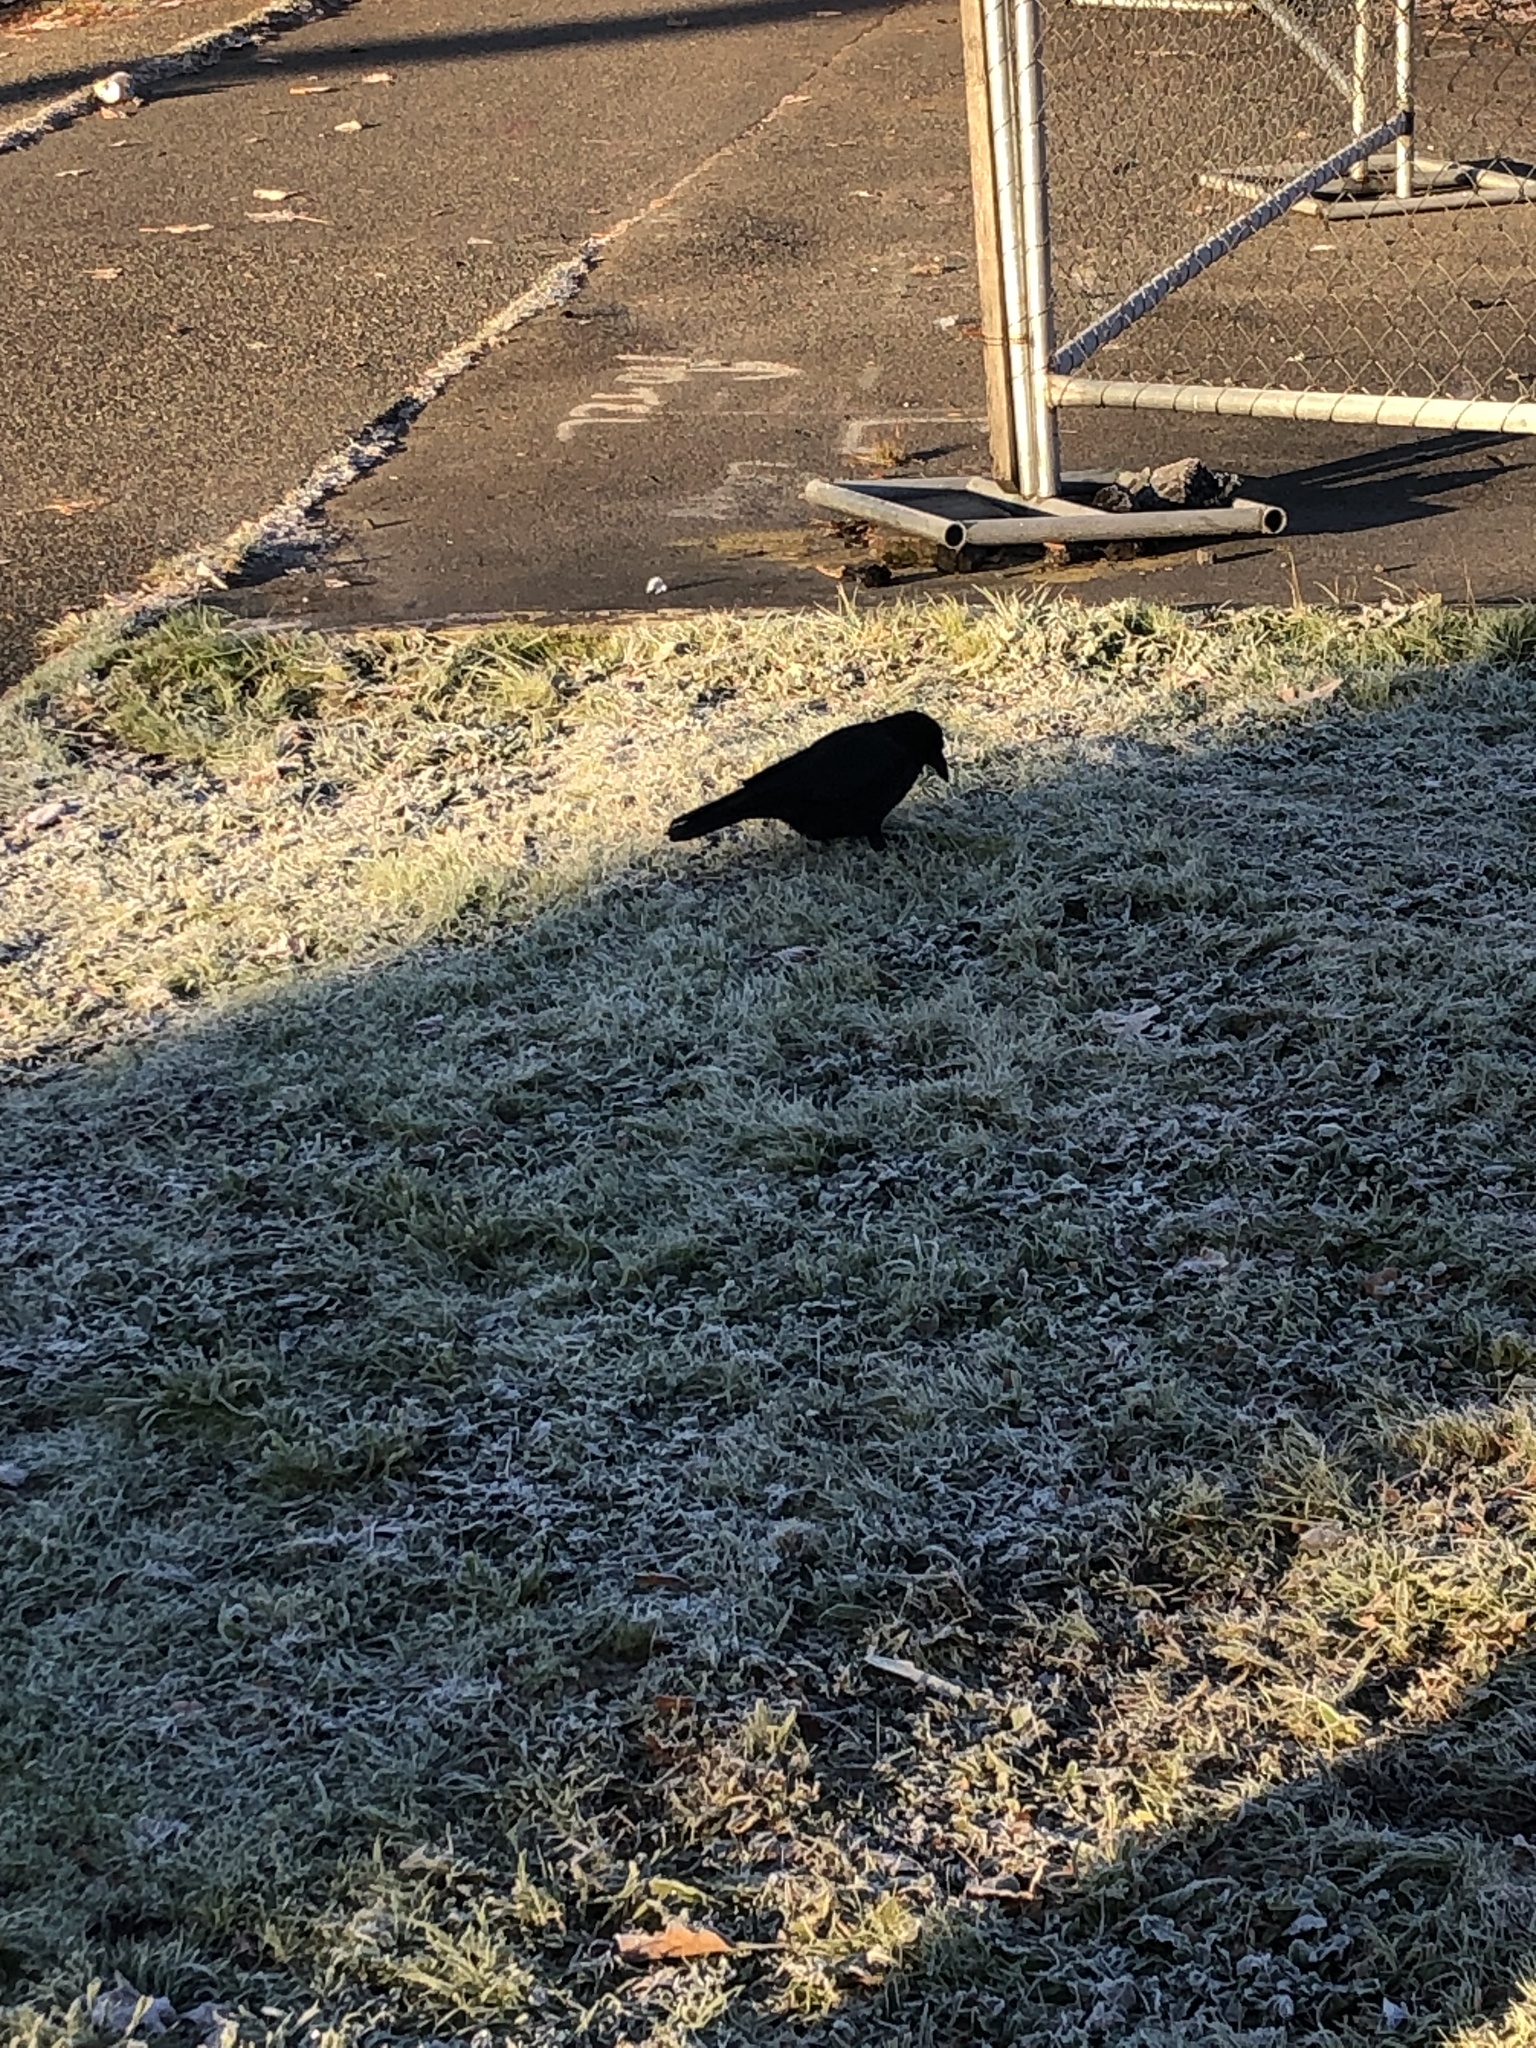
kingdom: Animalia
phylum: Chordata
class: Aves
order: Passeriformes
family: Corvidae
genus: Corvus
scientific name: Corvus brachyrhynchos
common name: American crow
